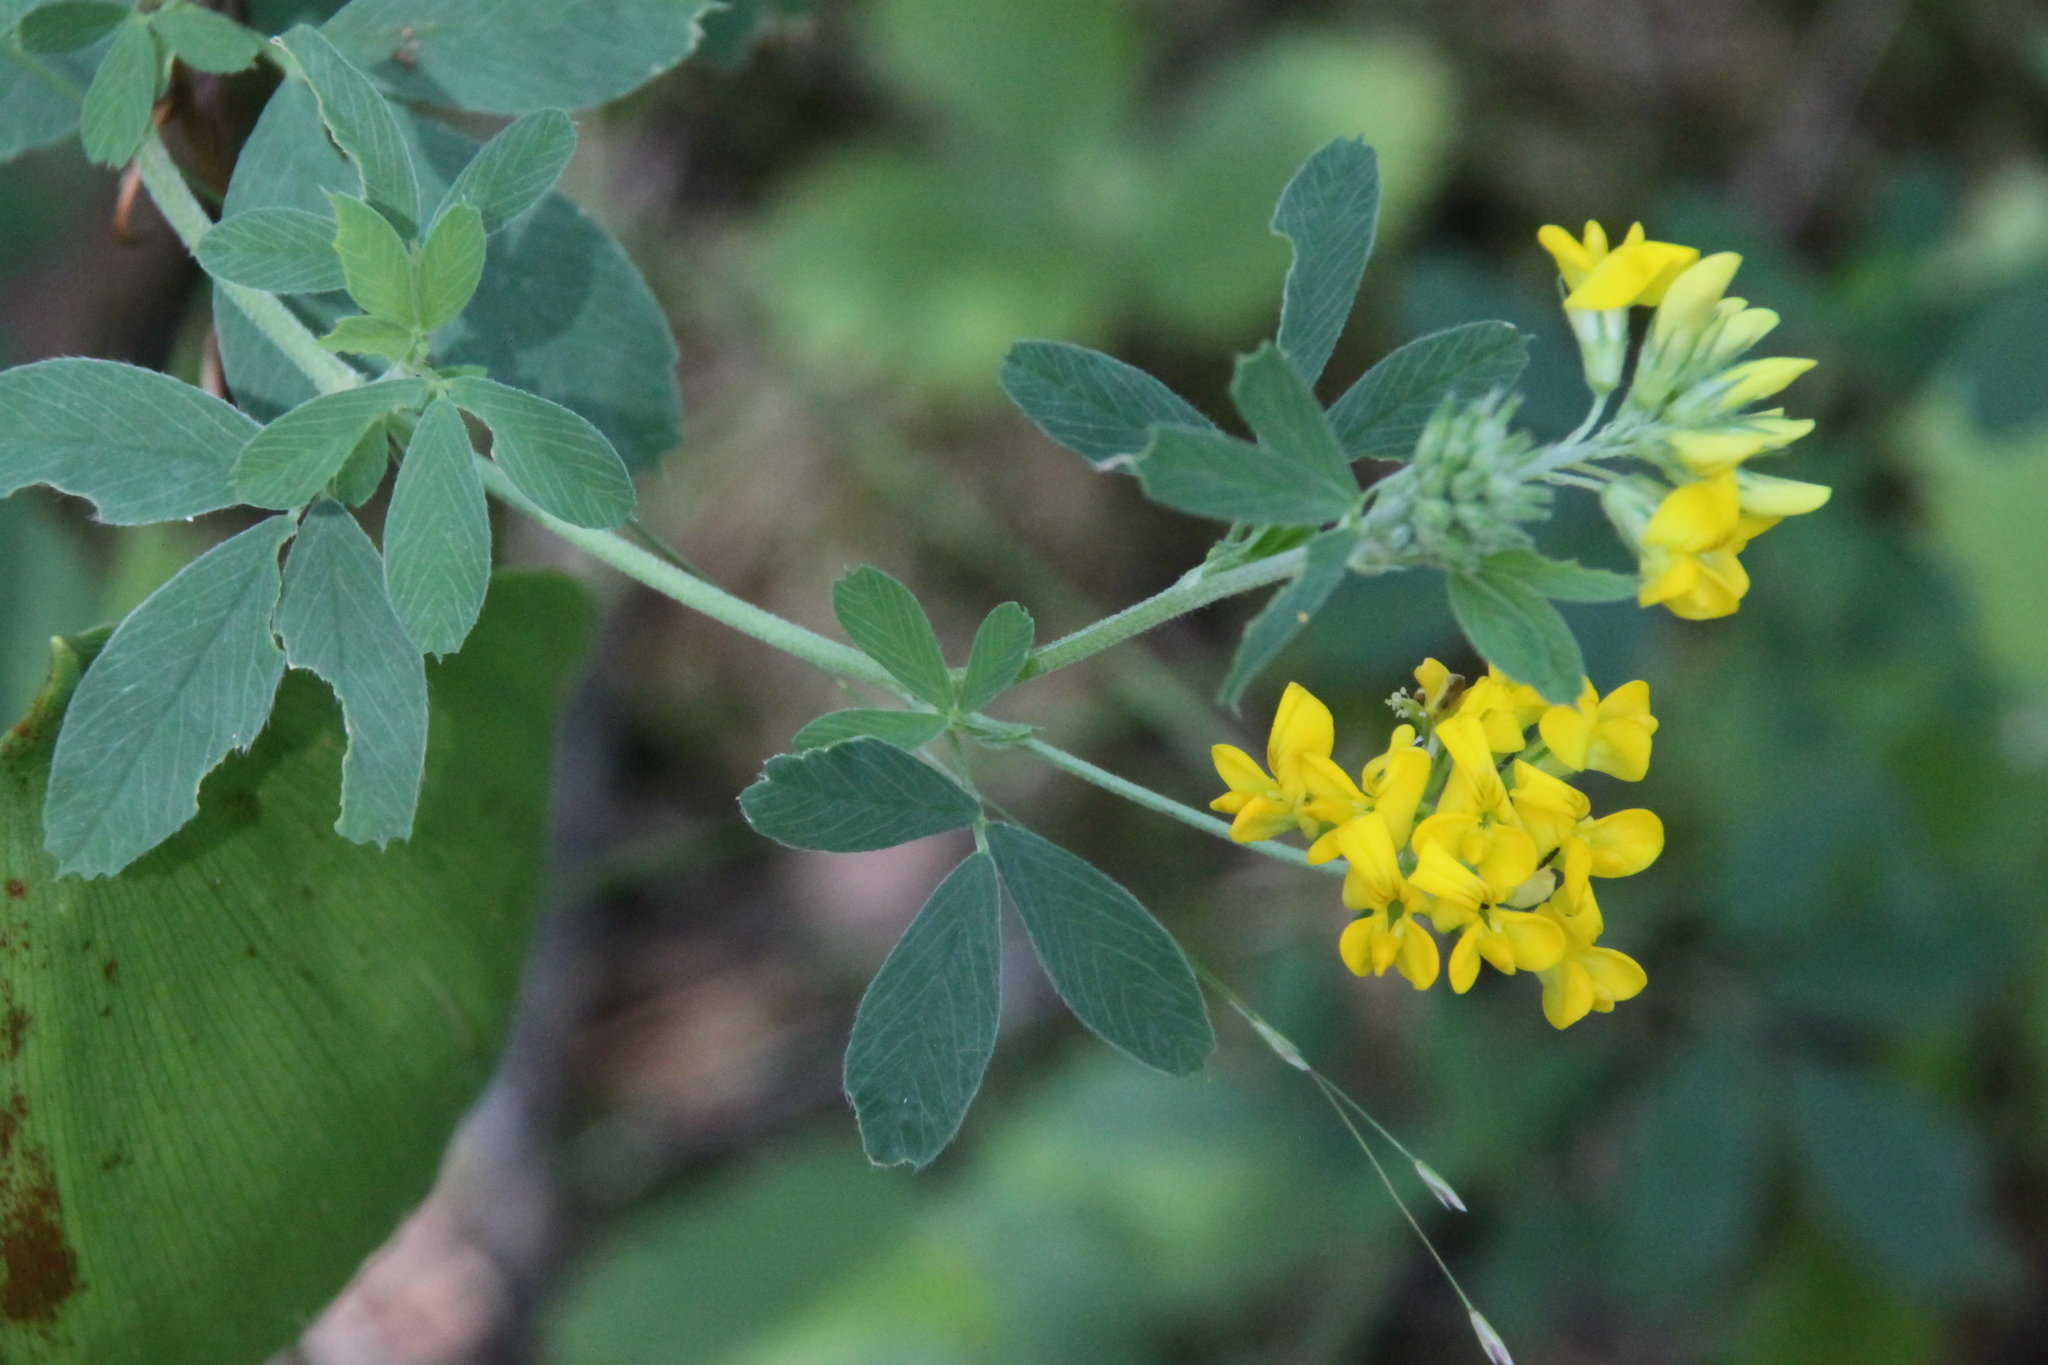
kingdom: Plantae
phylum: Tracheophyta
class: Magnoliopsida
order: Fabales
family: Fabaceae
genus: Medicago
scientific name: Medicago falcata
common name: Sickle medick
